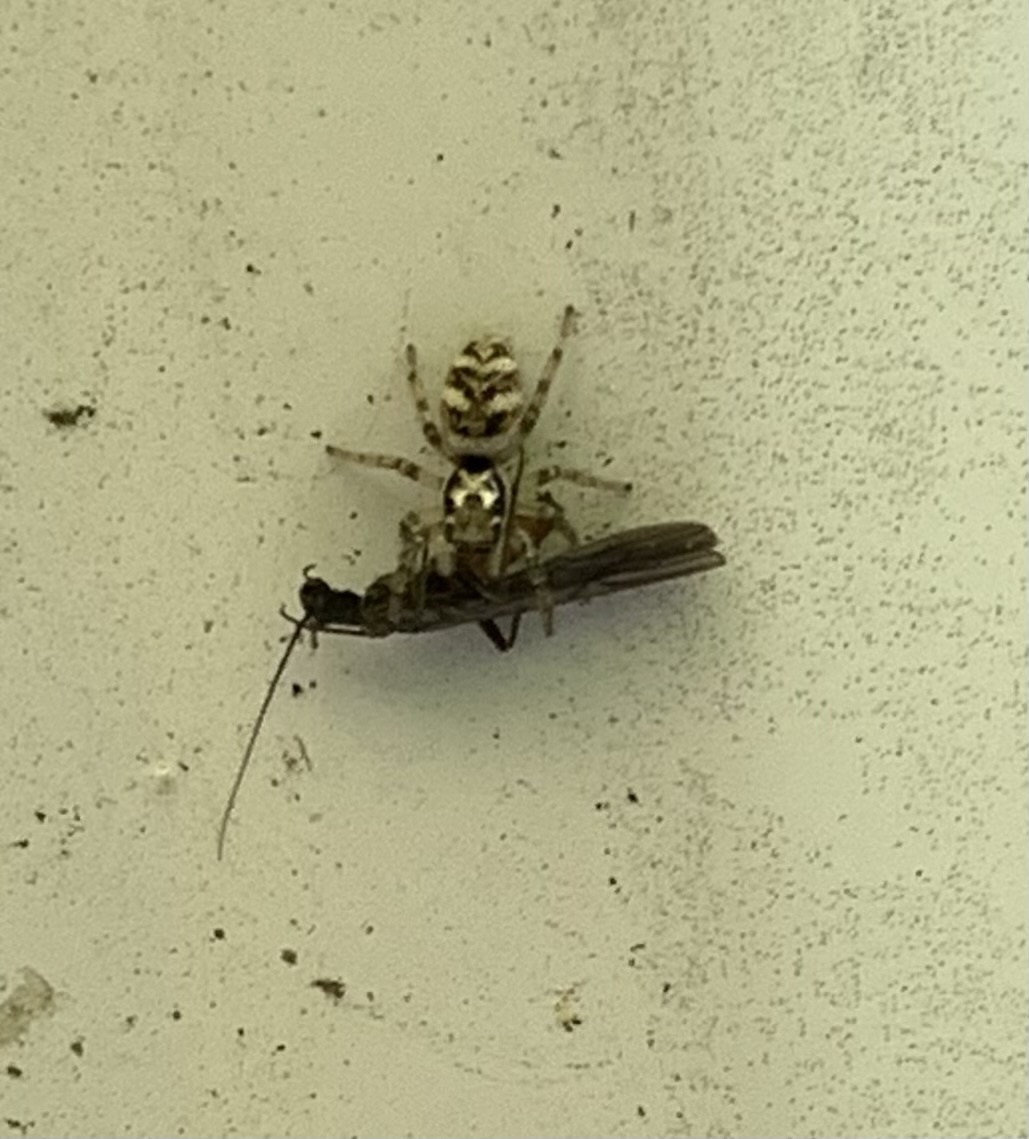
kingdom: Animalia
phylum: Arthropoda
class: Arachnida
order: Araneae
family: Salticidae
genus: Salticus
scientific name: Salticus scenicus
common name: Zebra jumper
